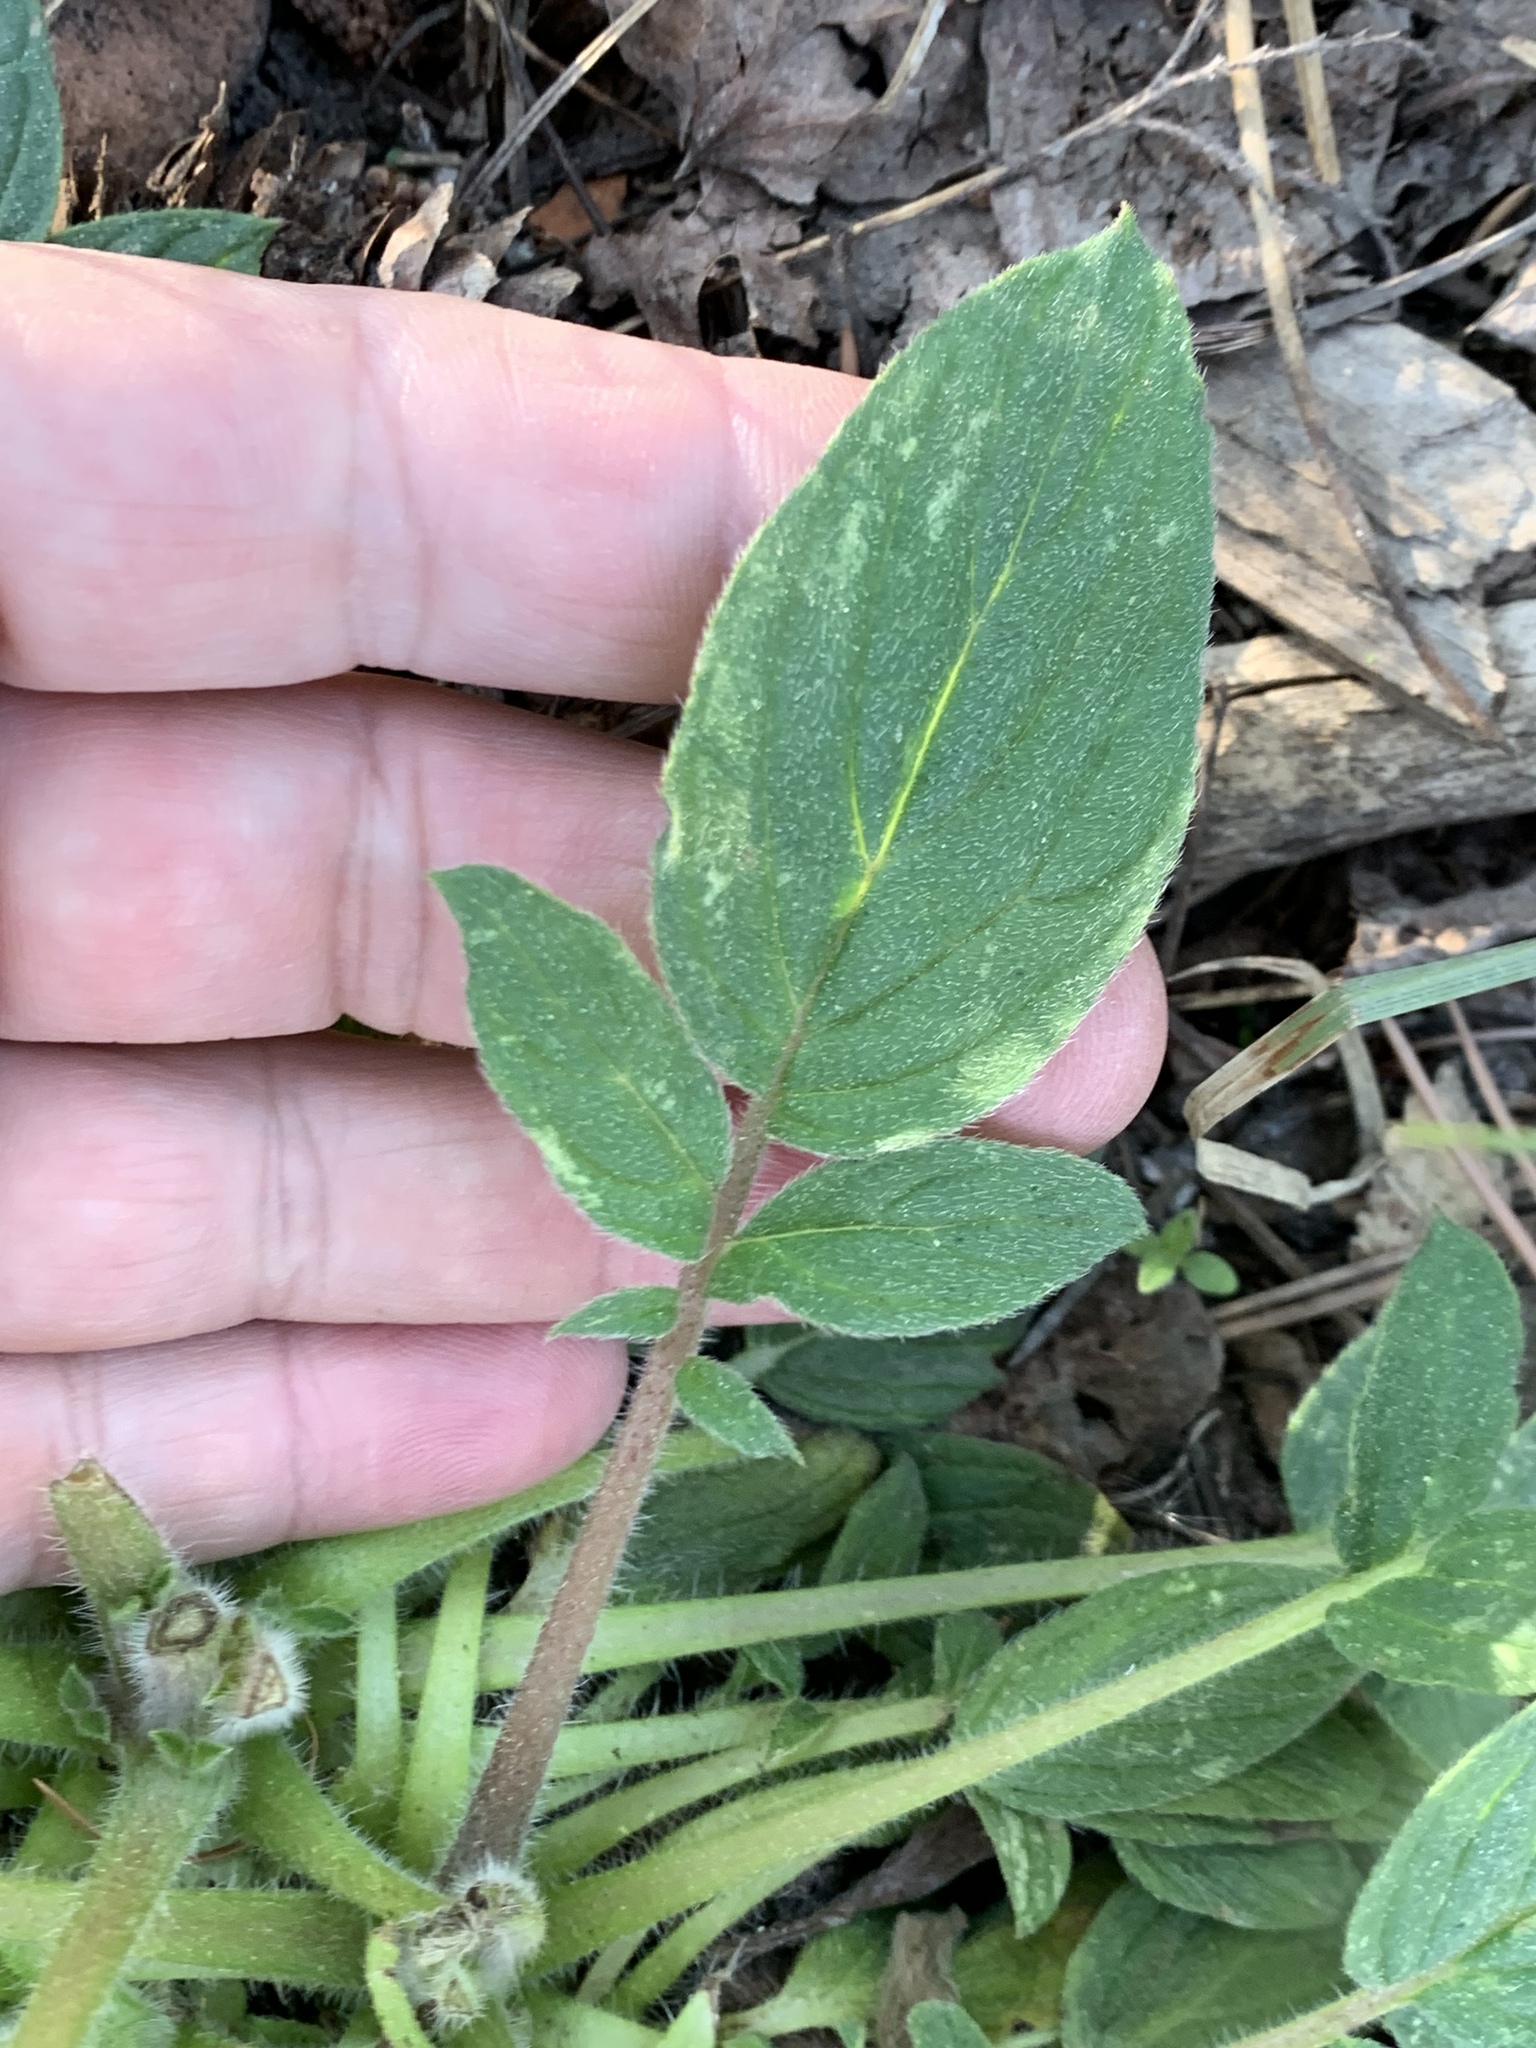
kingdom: Plantae
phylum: Tracheophyta
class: Magnoliopsida
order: Boraginales
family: Hydrophyllaceae
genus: Phacelia
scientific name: Phacelia heterophylla
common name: Variable-leaved phacelia
